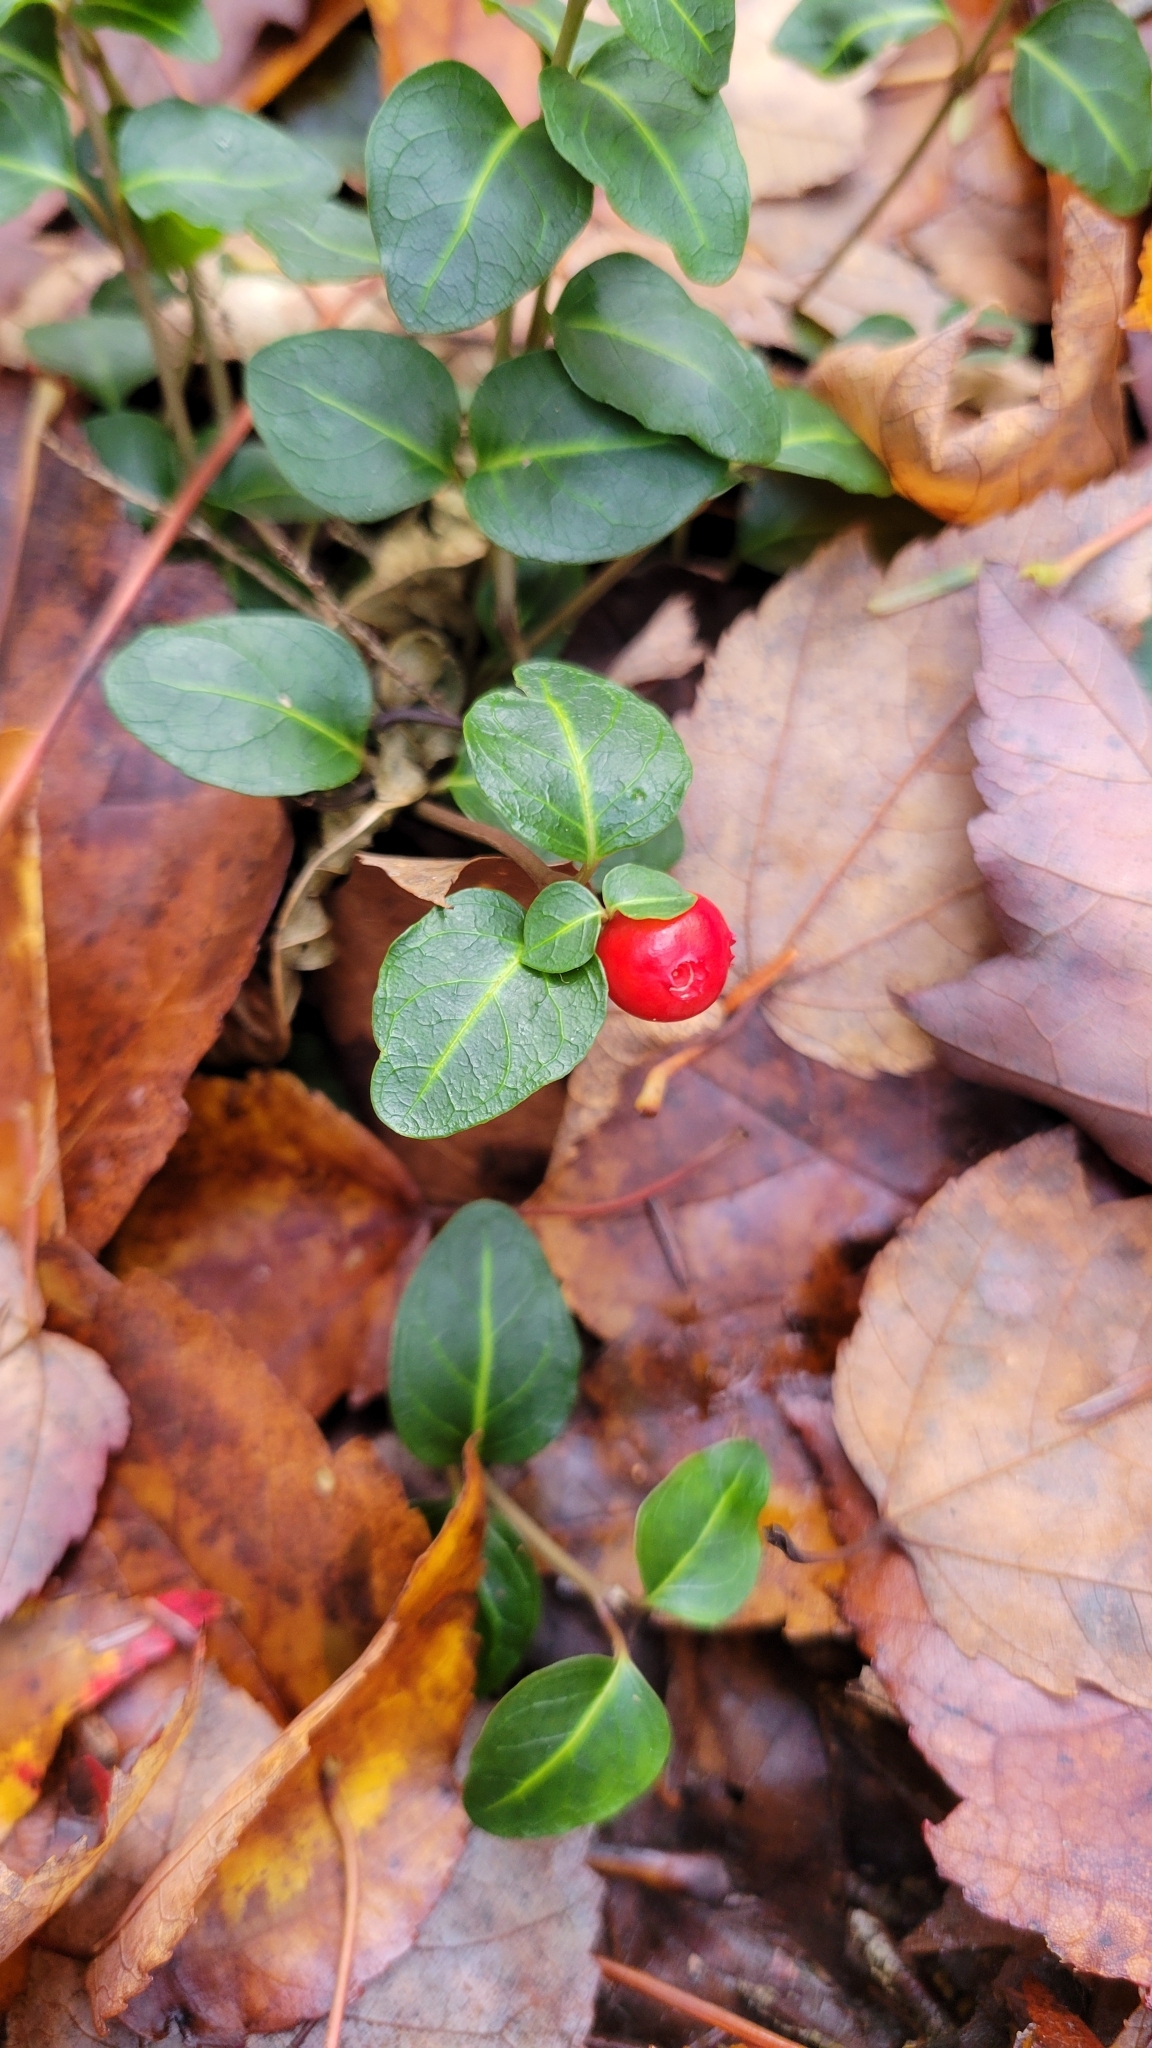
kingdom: Plantae
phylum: Tracheophyta
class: Magnoliopsida
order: Gentianales
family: Rubiaceae
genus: Mitchella
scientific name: Mitchella repens
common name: Partridge-berry
